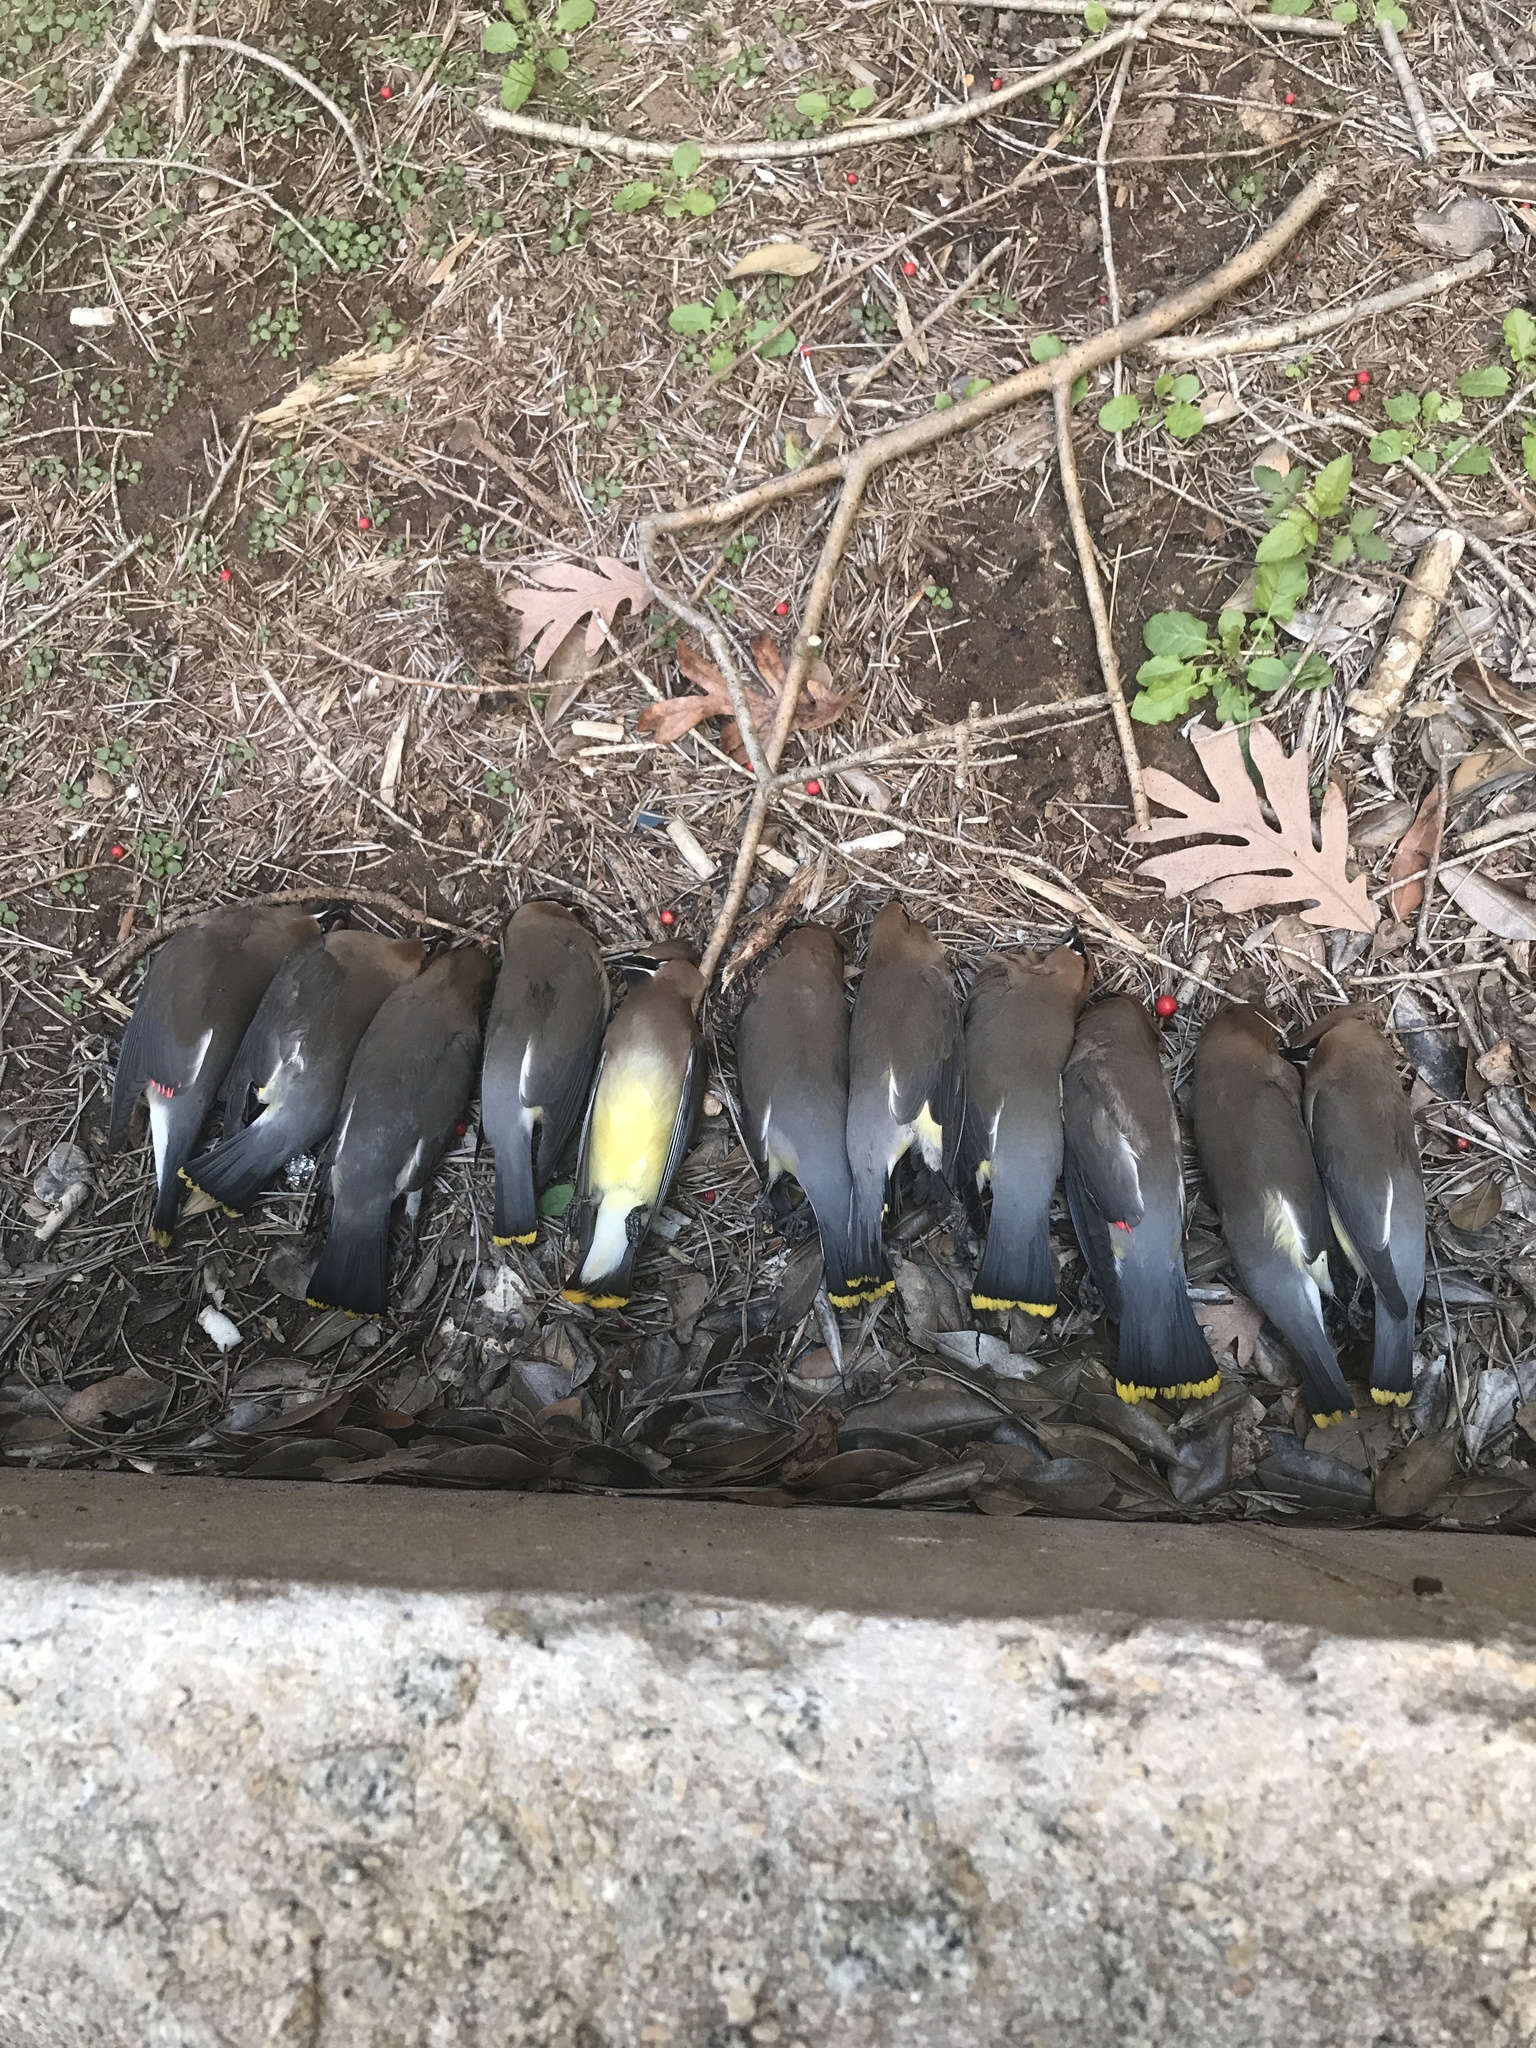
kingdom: Animalia
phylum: Chordata
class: Aves
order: Passeriformes
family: Bombycillidae
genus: Bombycilla
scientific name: Bombycilla cedrorum
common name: Cedar waxwing
